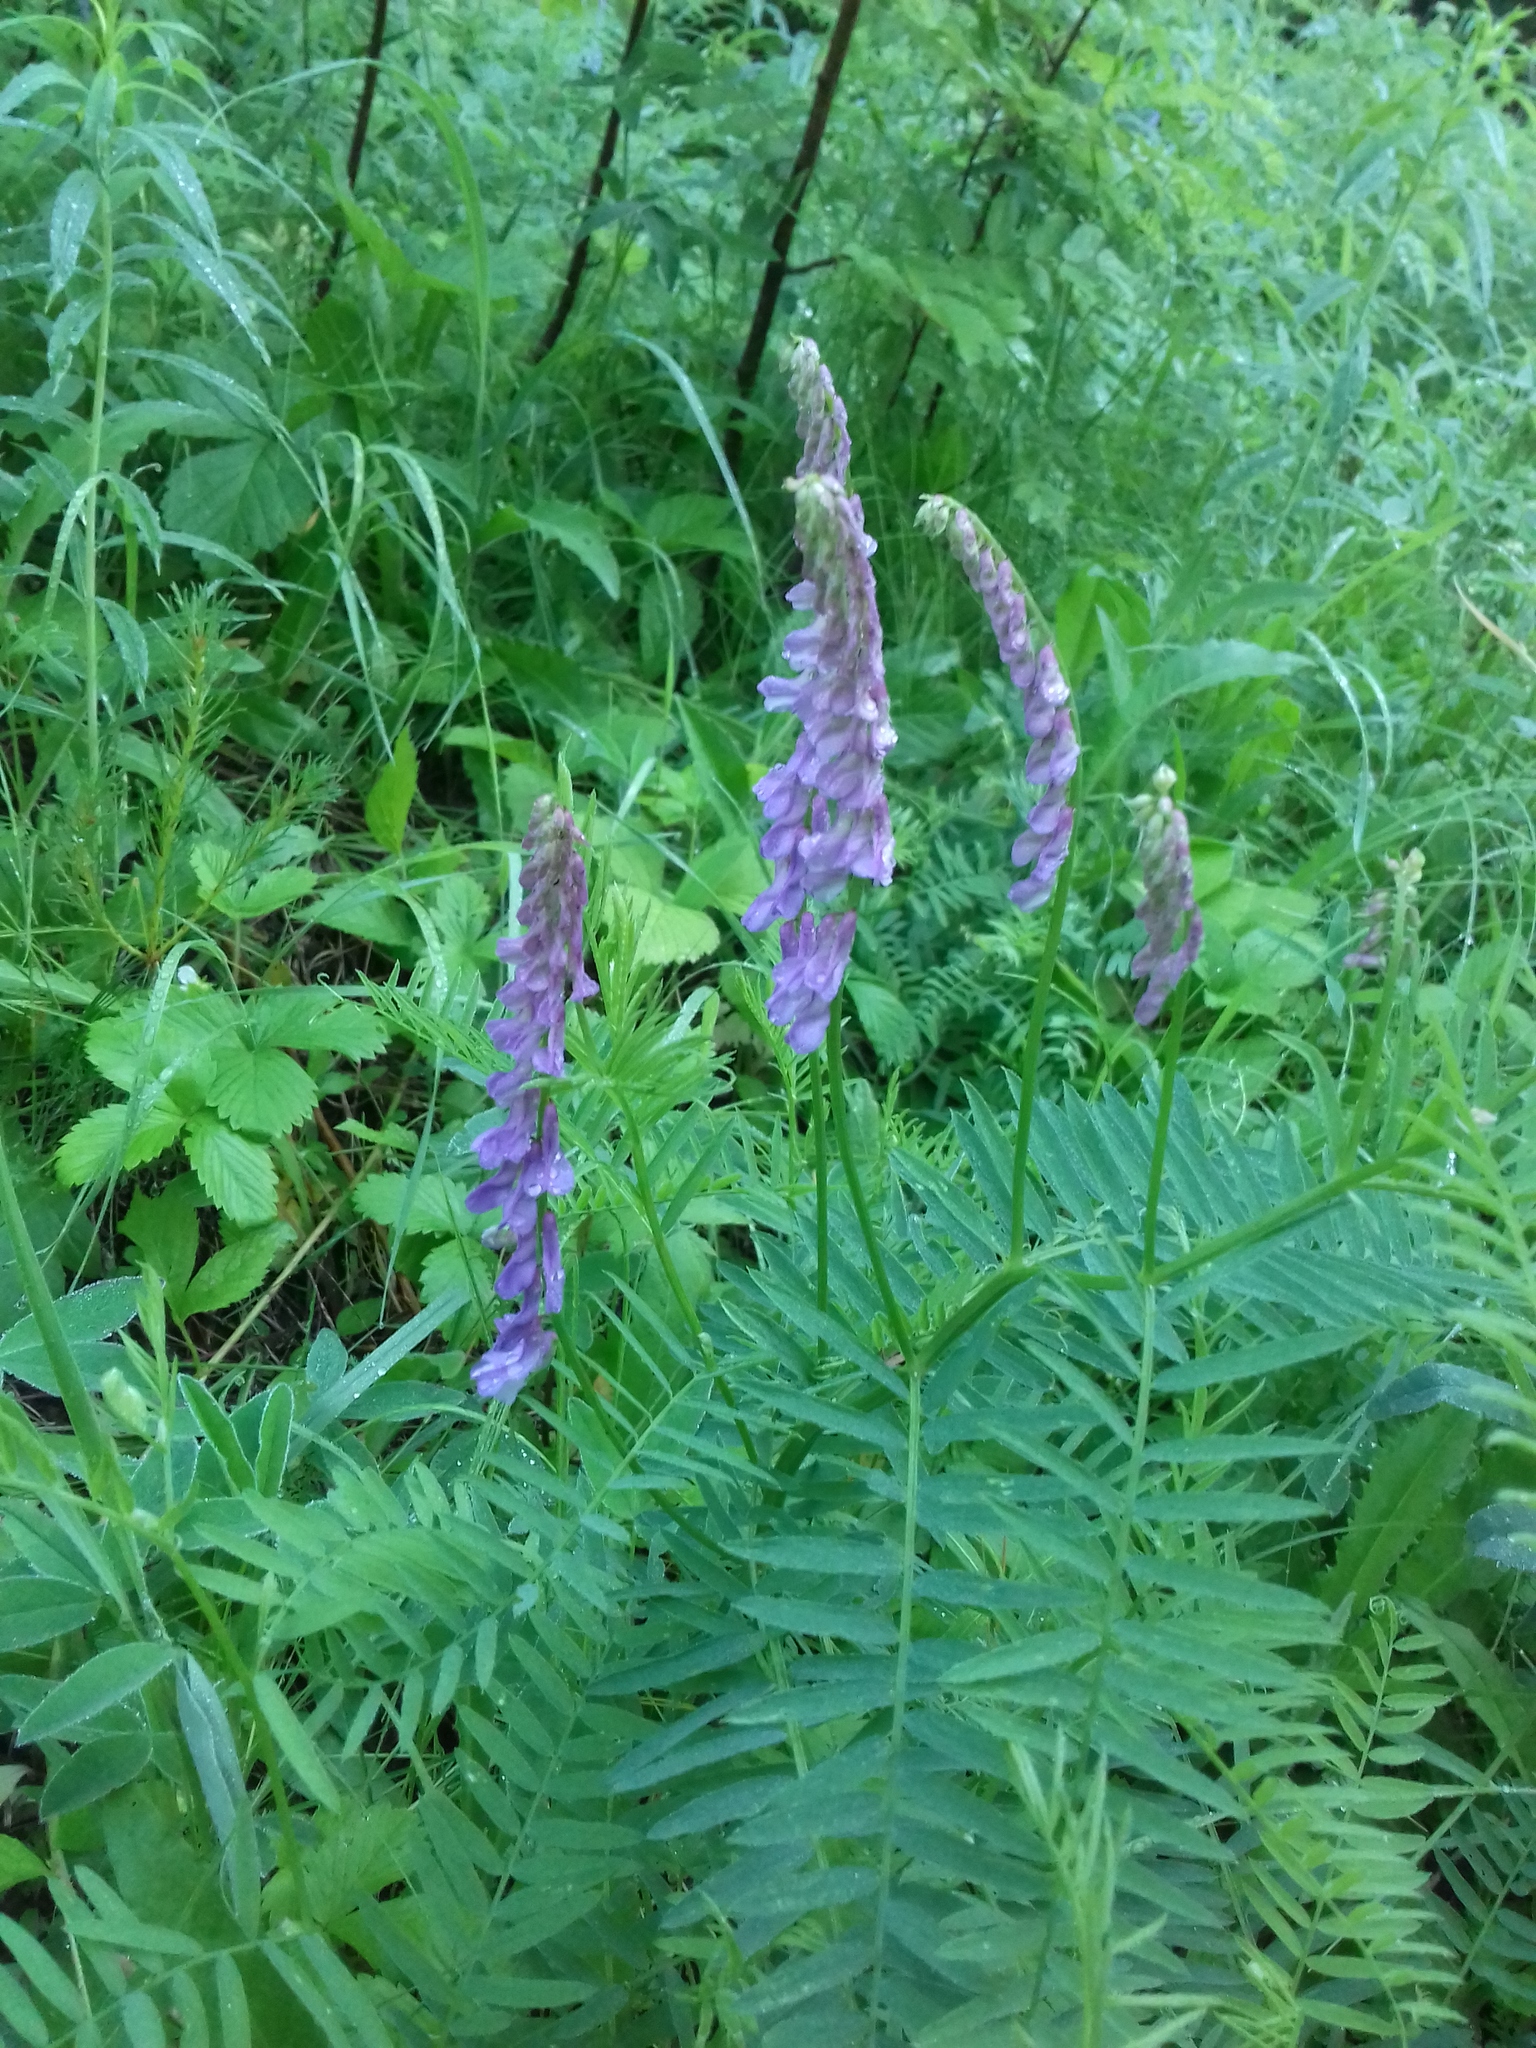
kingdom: Plantae
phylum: Tracheophyta
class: Magnoliopsida
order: Fabales
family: Fabaceae
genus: Vicia
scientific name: Vicia tenuifolia
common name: Fine-leaved vetch
